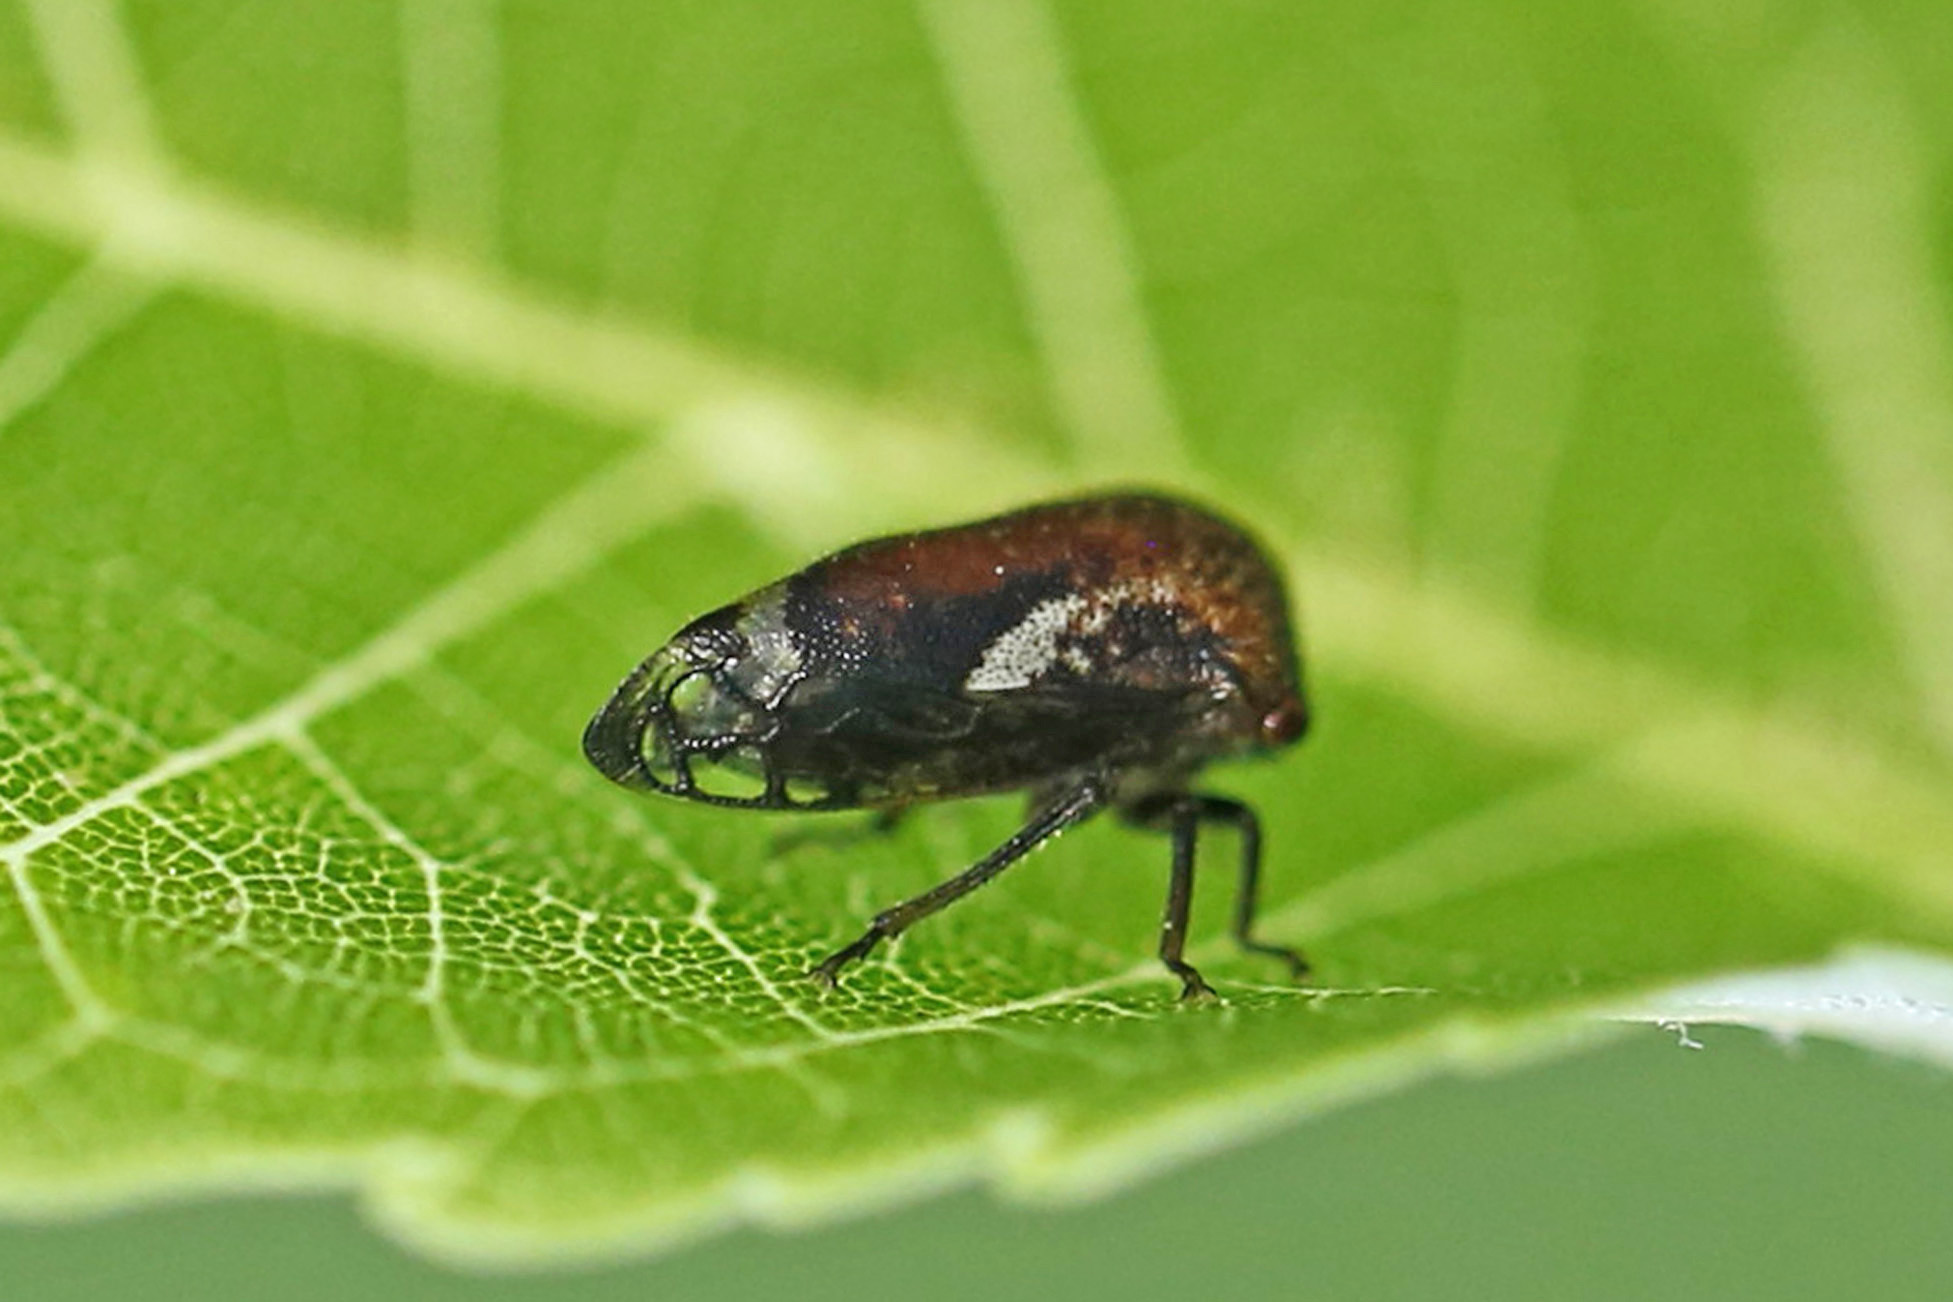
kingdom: Animalia
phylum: Arthropoda
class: Insecta
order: Hemiptera
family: Membracidae
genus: Vanduzea
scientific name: Vanduzea arquata
